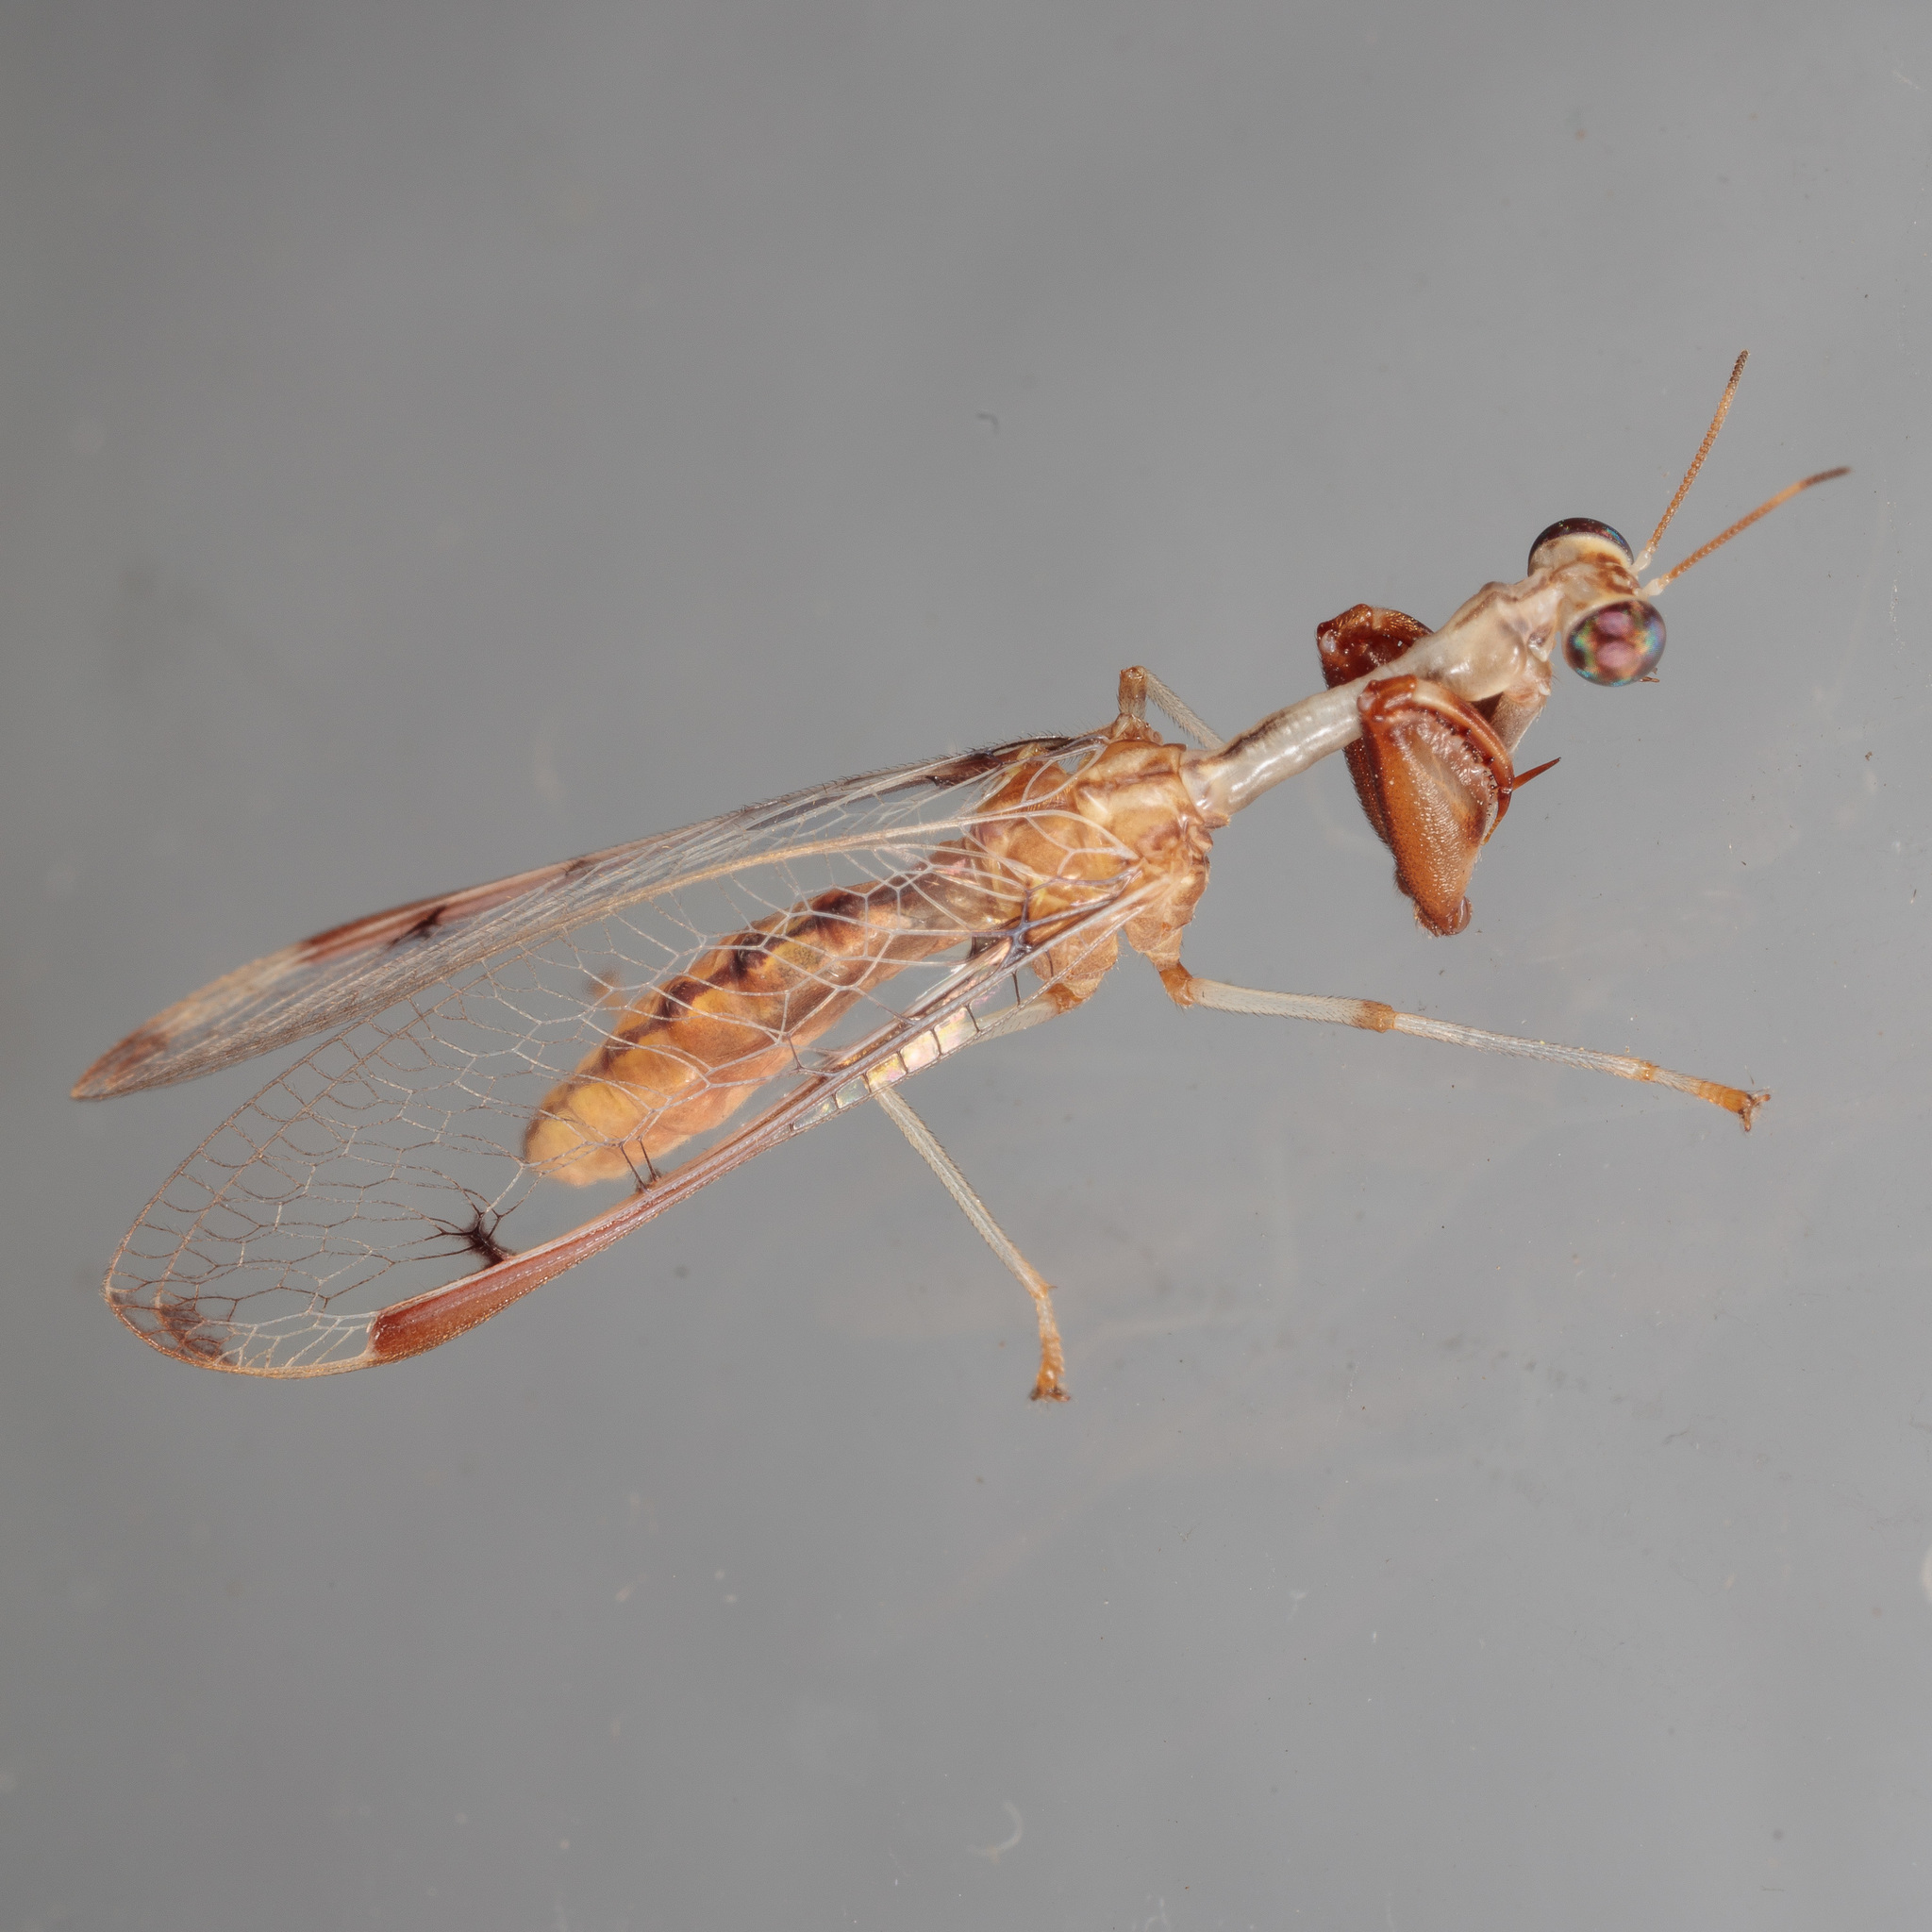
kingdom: Animalia
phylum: Arthropoda
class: Insecta
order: Neuroptera
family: Mantispidae
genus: Dicromantispa
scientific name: Dicromantispa interrupta
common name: Four-spotted mantidfly
